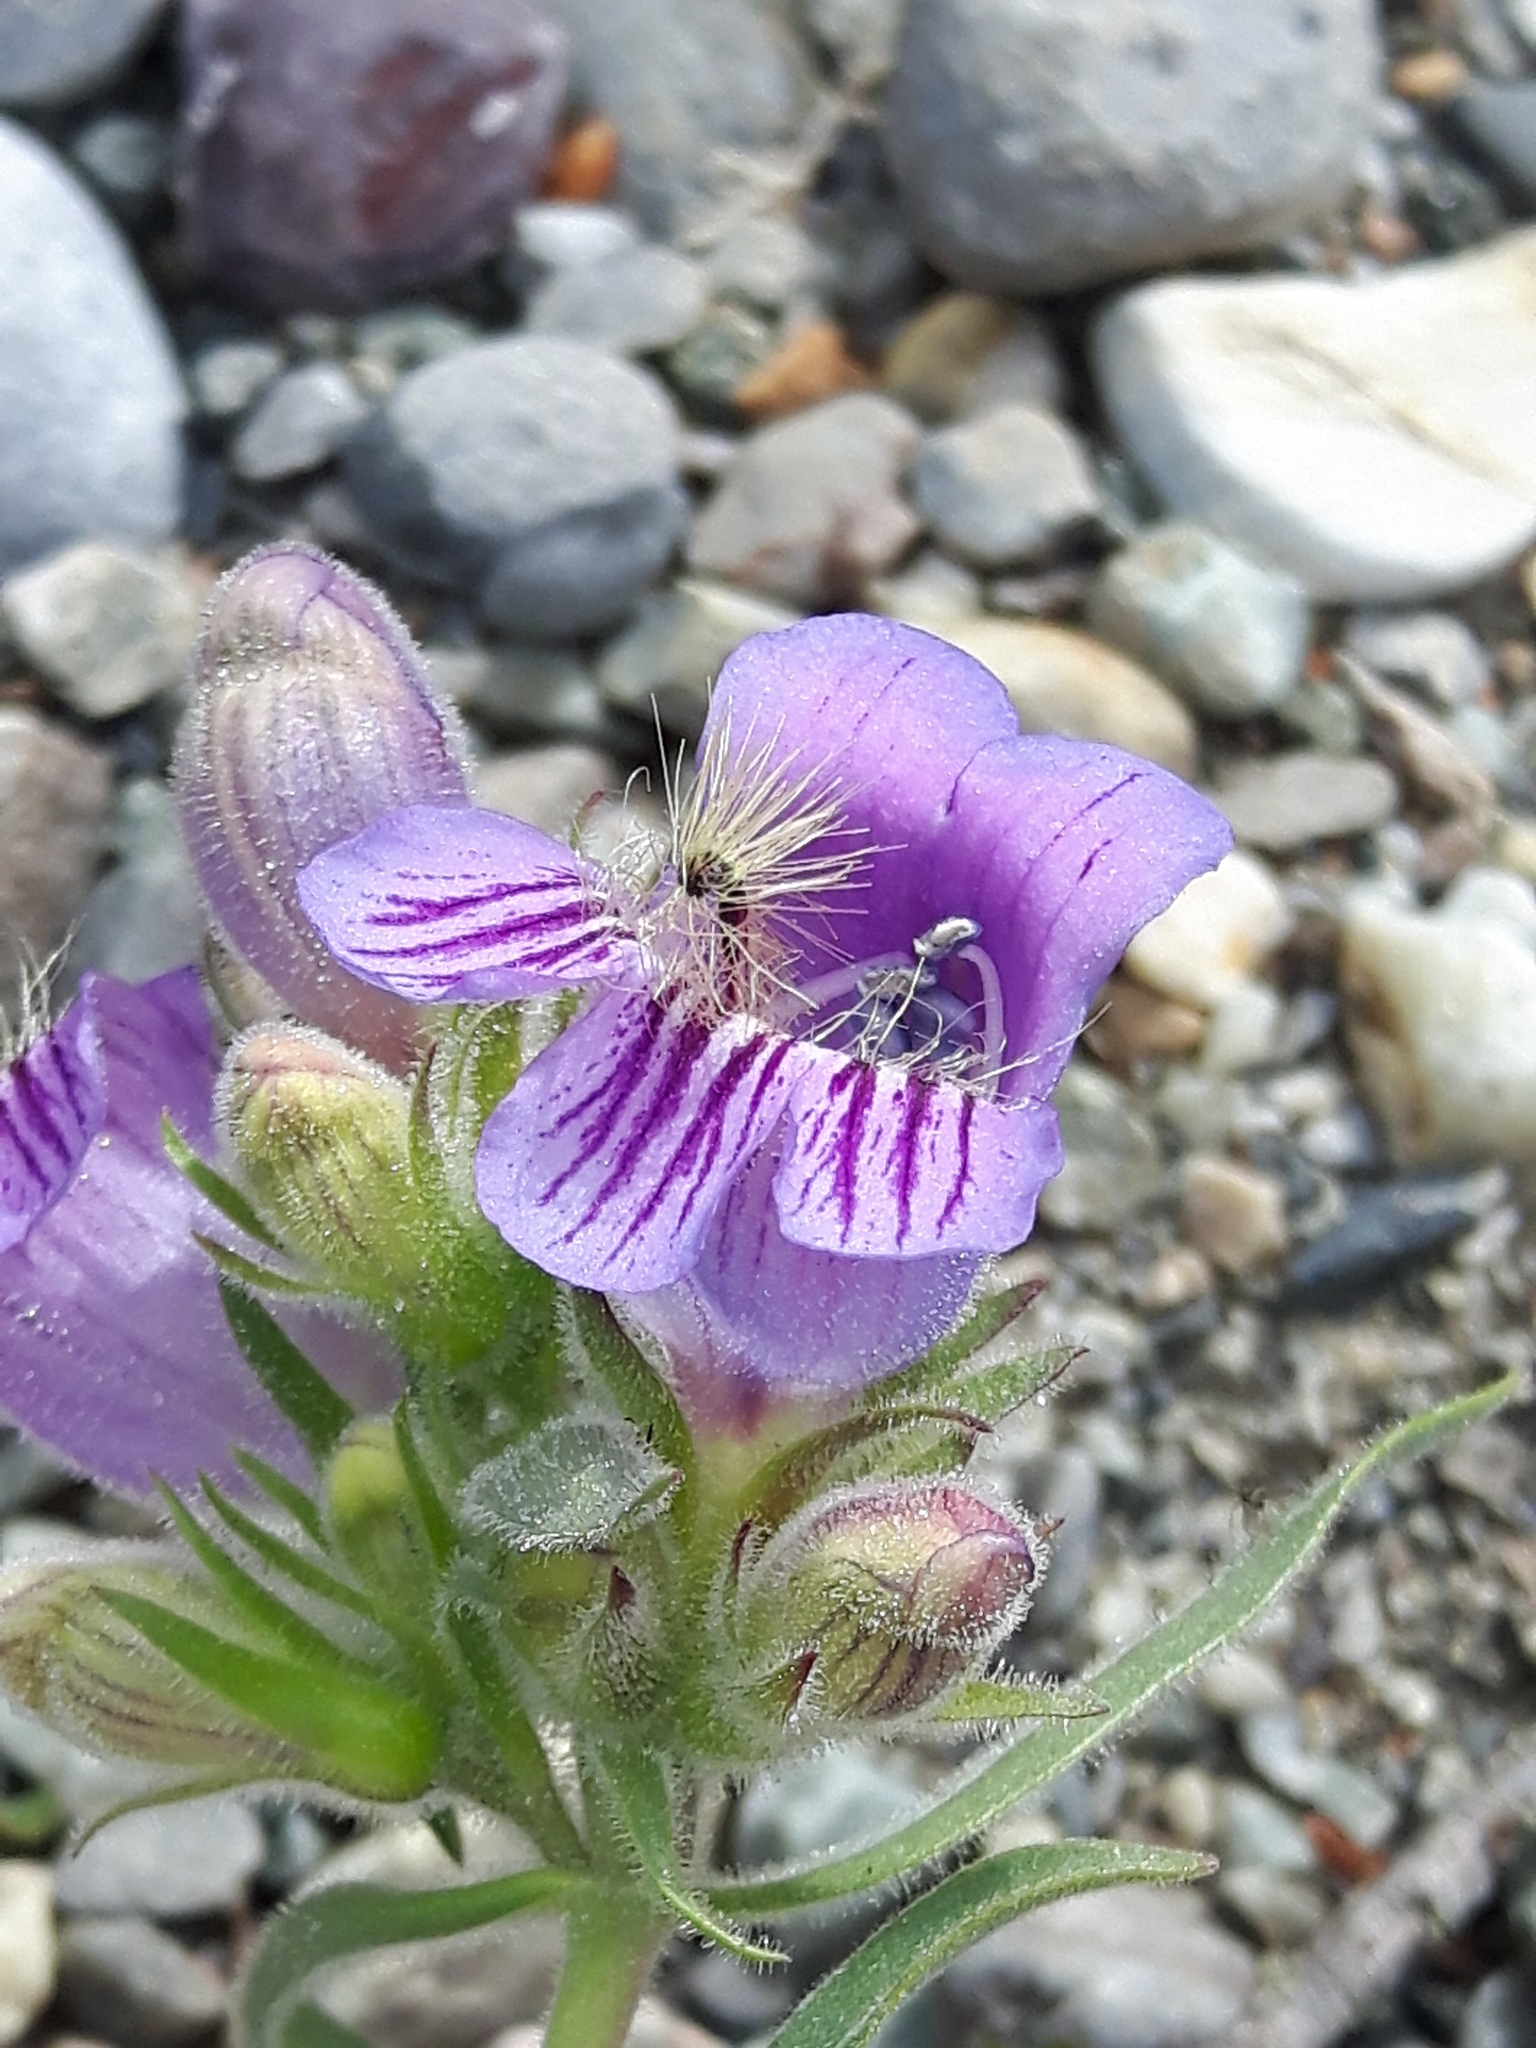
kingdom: Plantae
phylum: Tracheophyta
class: Magnoliopsida
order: Lamiales
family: Plantaginaceae
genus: Penstemon
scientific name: Penstemon eriantherus
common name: Crested beardtongue
